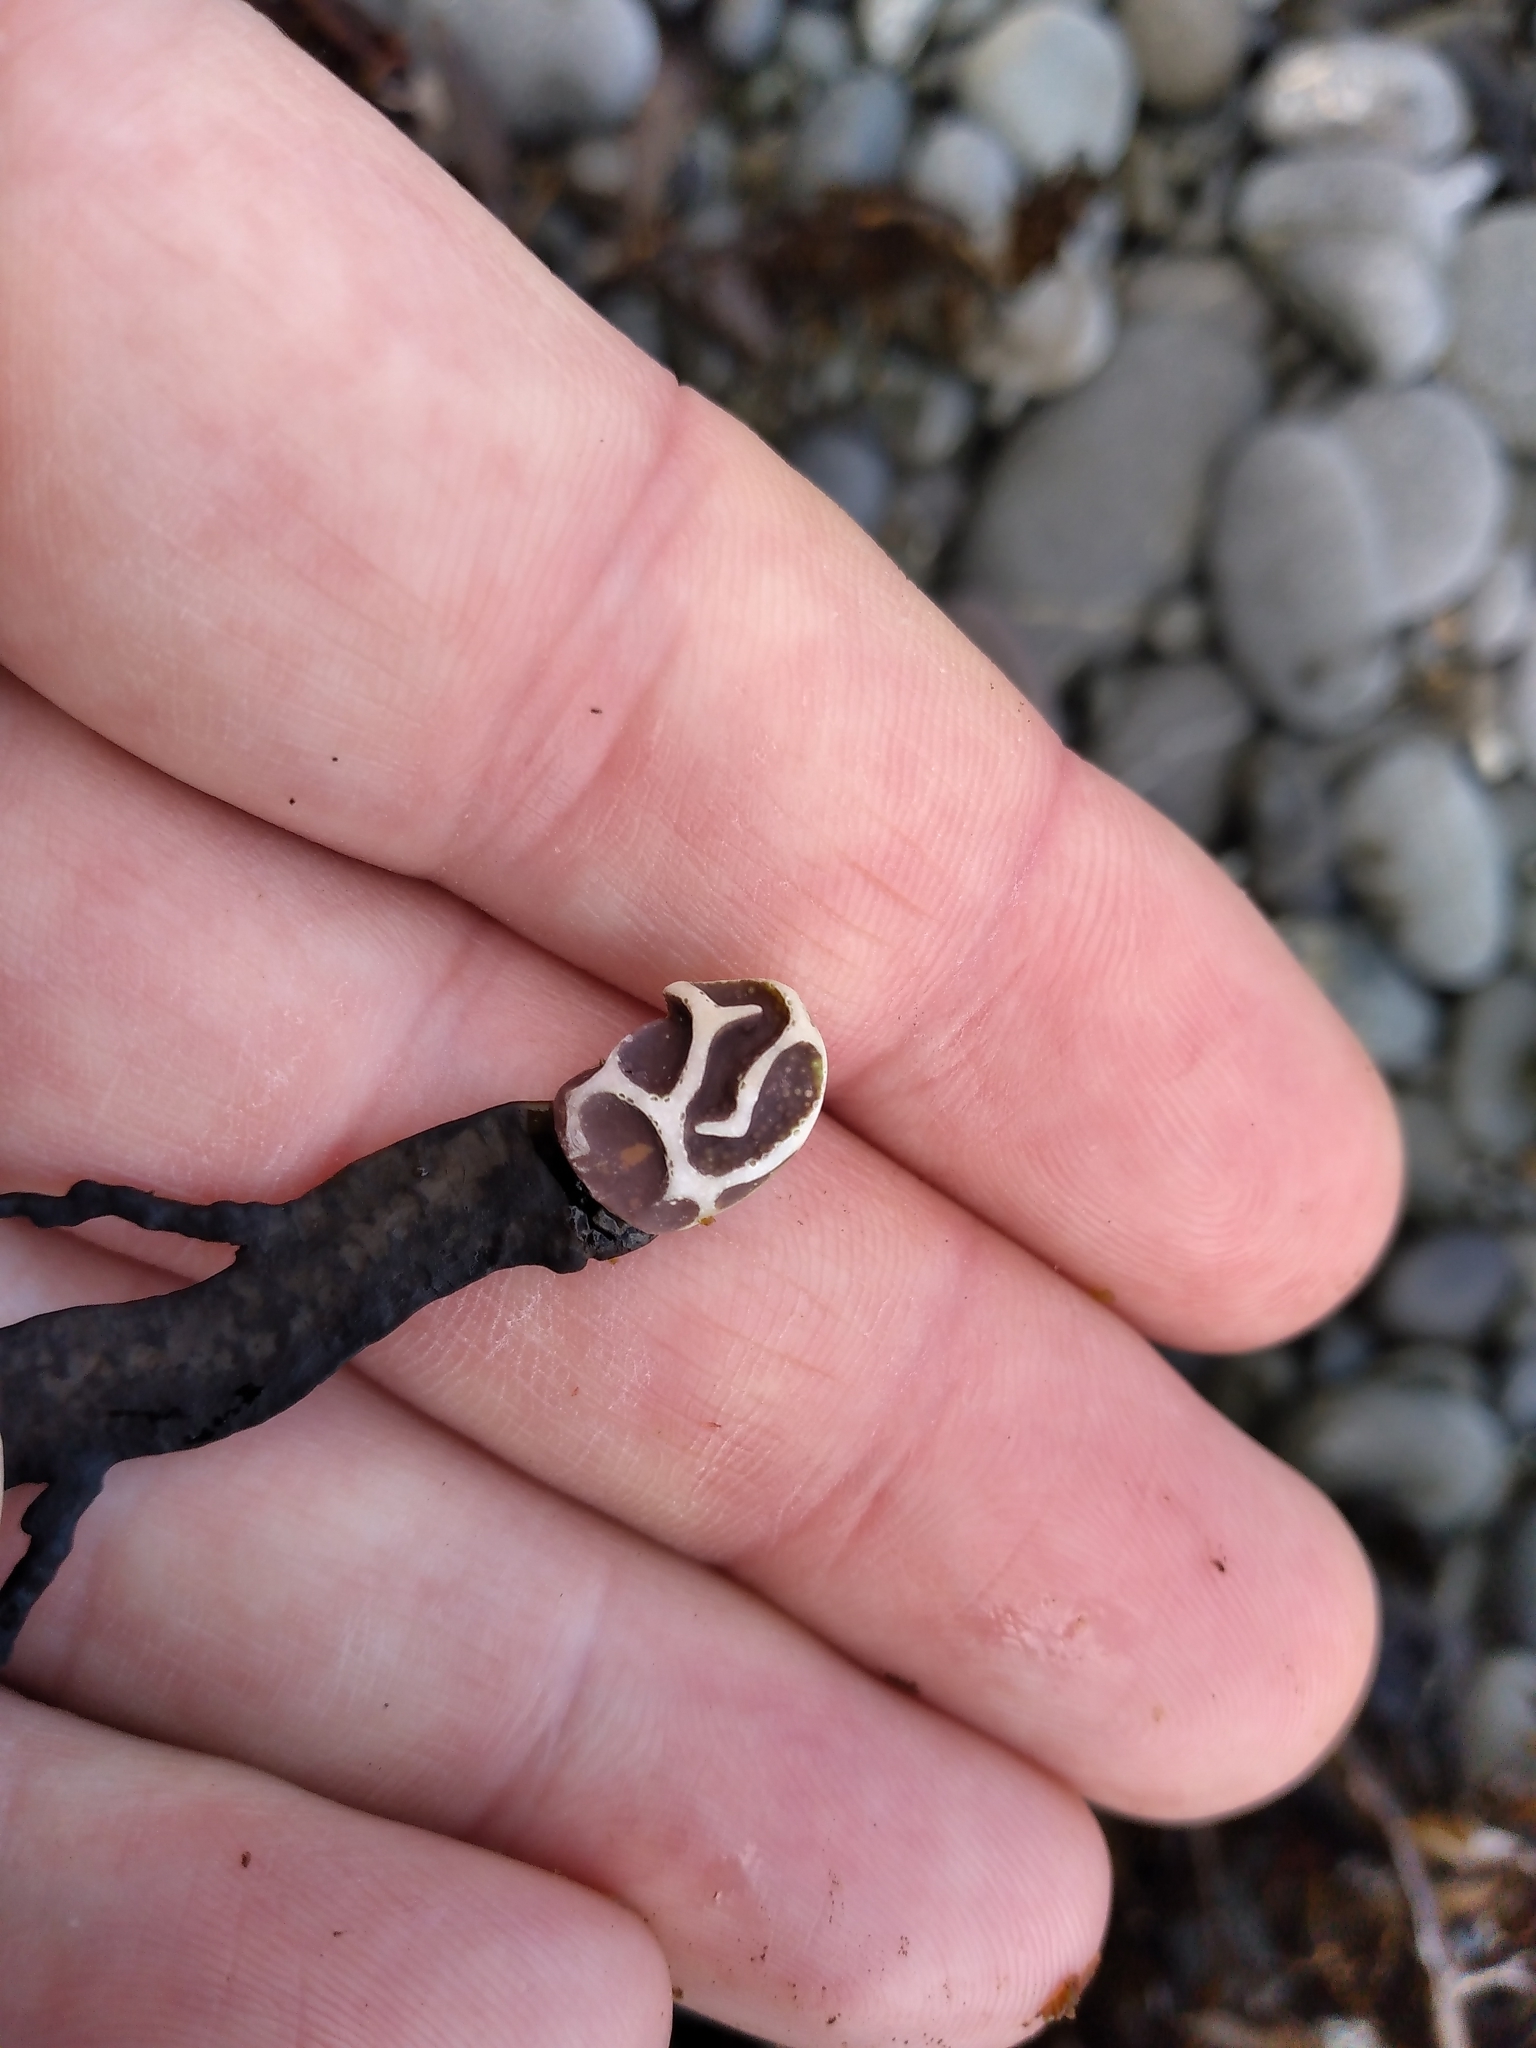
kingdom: Plantae
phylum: Rhodophyta
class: Florideophyceae
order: Corallinales
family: Lithophyllaceae
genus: Lithophyllum
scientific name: Lithophyllum carpophylli
